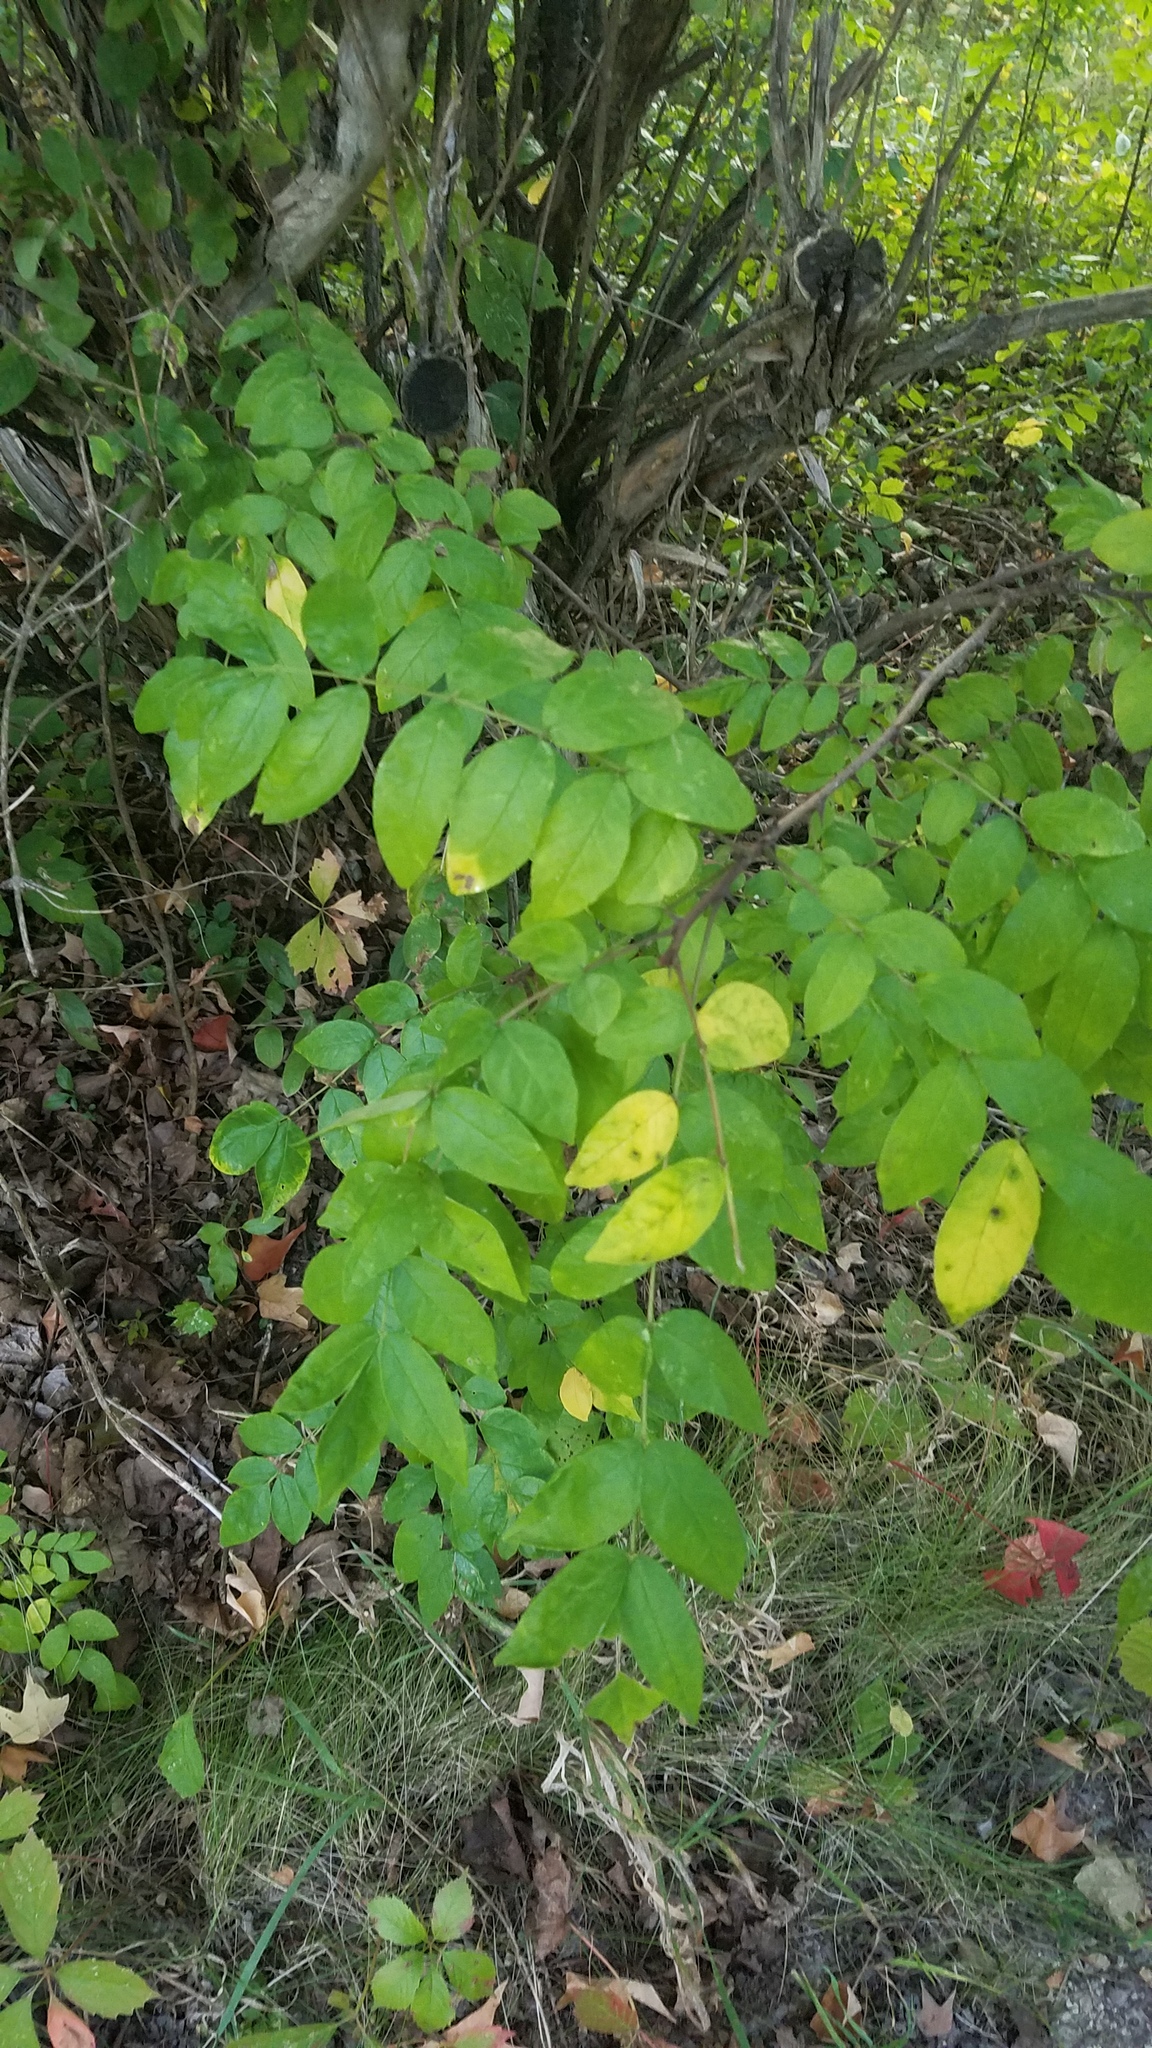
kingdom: Plantae
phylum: Tracheophyta
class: Magnoliopsida
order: Sapindales
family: Rutaceae
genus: Zanthoxylum
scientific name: Zanthoxylum americanum
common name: Northern prickly-ash
